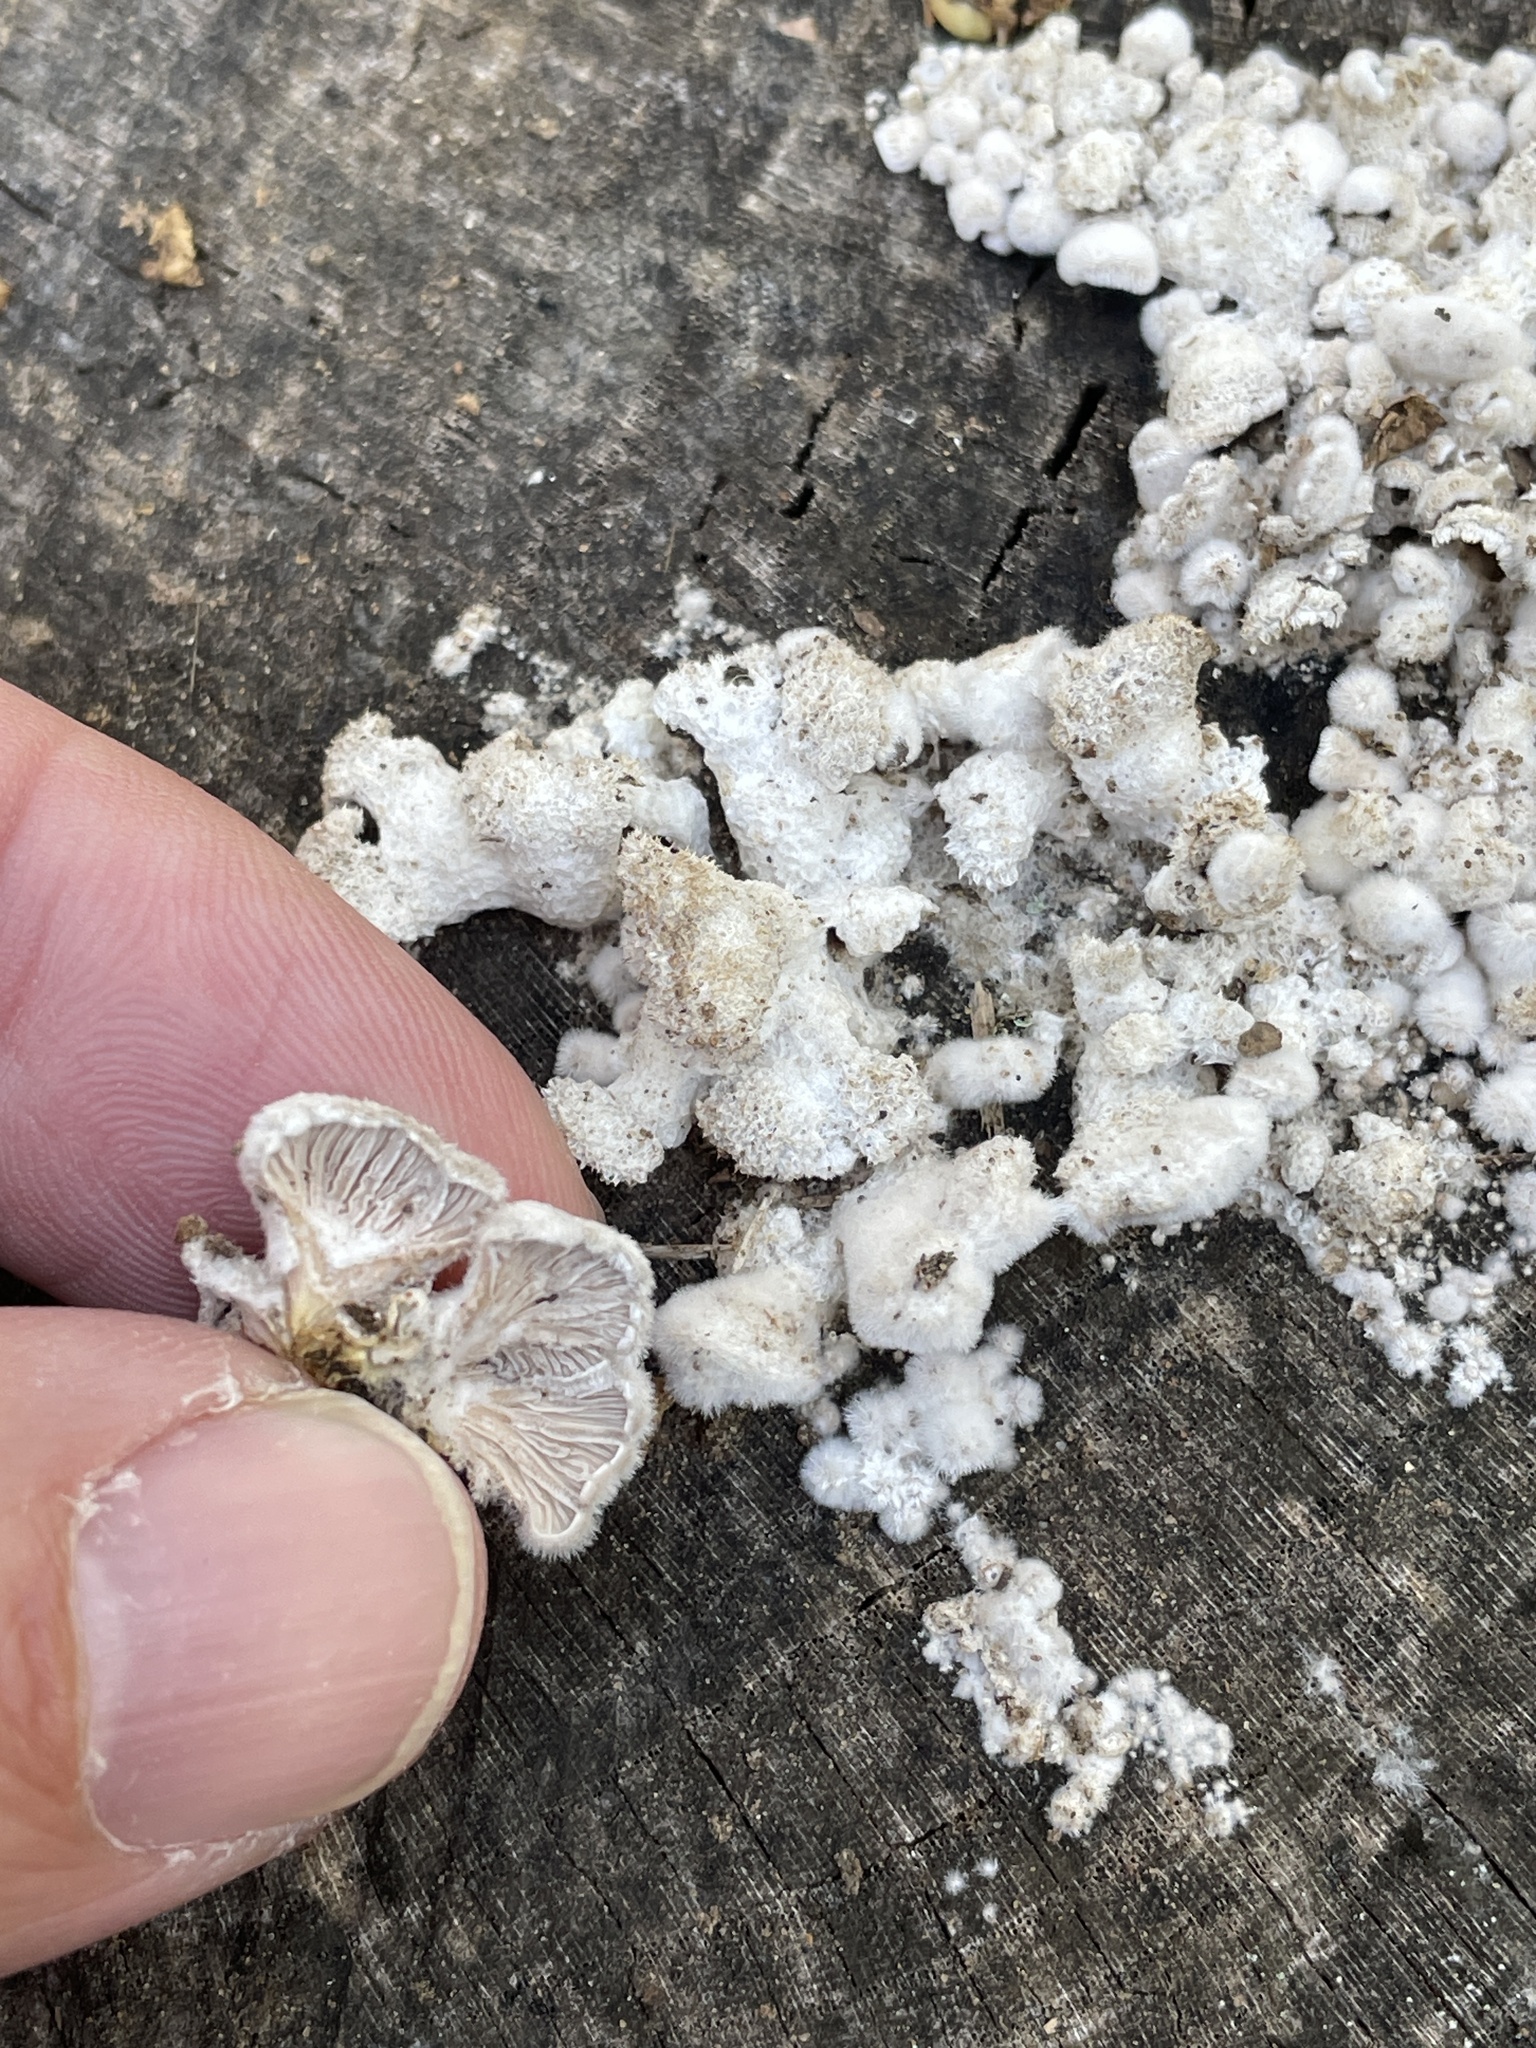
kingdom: Fungi
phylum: Basidiomycota
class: Agaricomycetes
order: Agaricales
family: Schizophyllaceae
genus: Schizophyllum
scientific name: Schizophyllum commune
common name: Common porecrust
